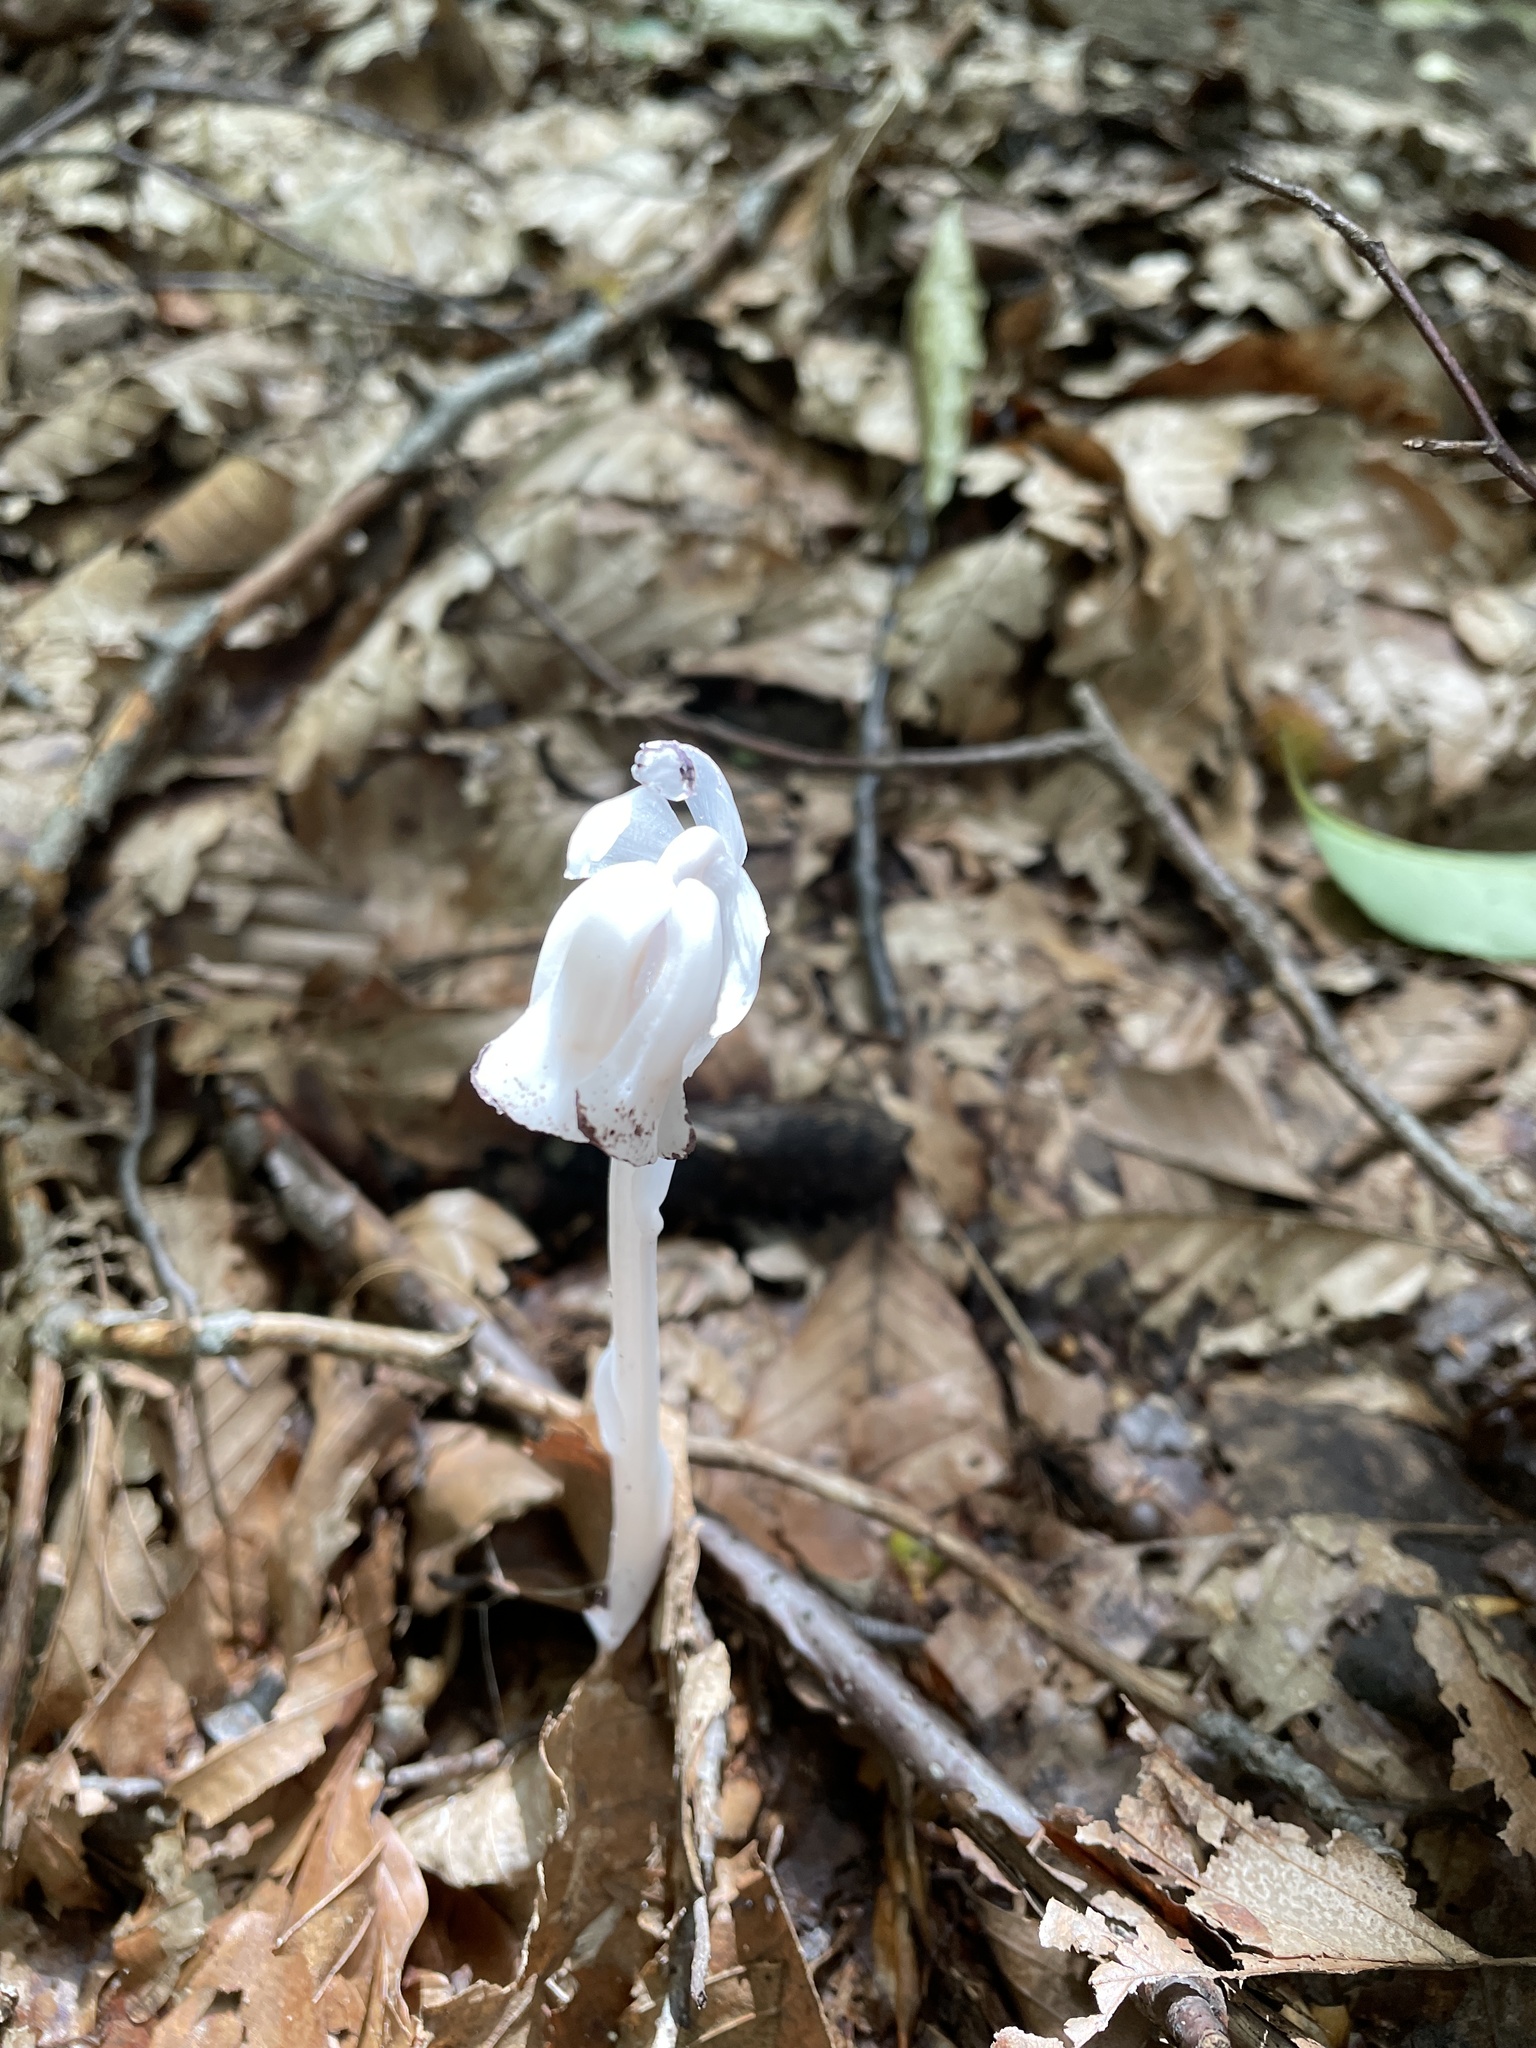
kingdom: Plantae
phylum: Tracheophyta
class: Magnoliopsida
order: Ericales
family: Ericaceae
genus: Monotropa
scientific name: Monotropa uniflora
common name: Convulsion root
